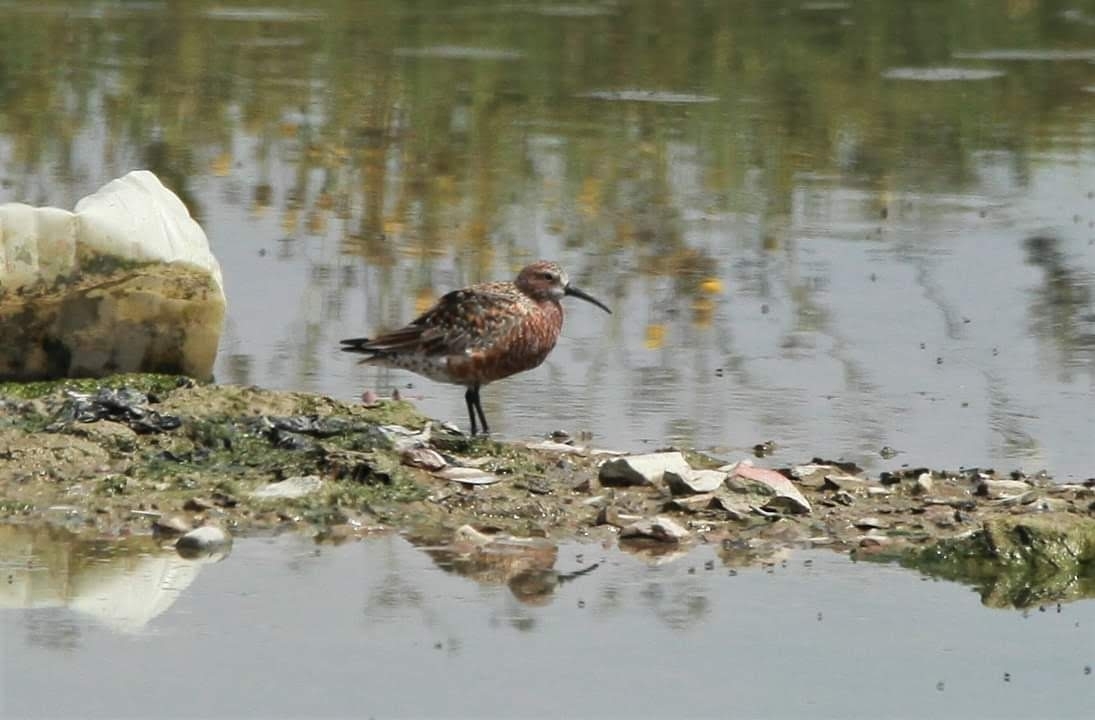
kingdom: Animalia
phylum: Chordata
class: Aves
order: Charadriiformes
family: Scolopacidae
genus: Calidris
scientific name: Calidris ferruginea
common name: Curlew sandpiper
